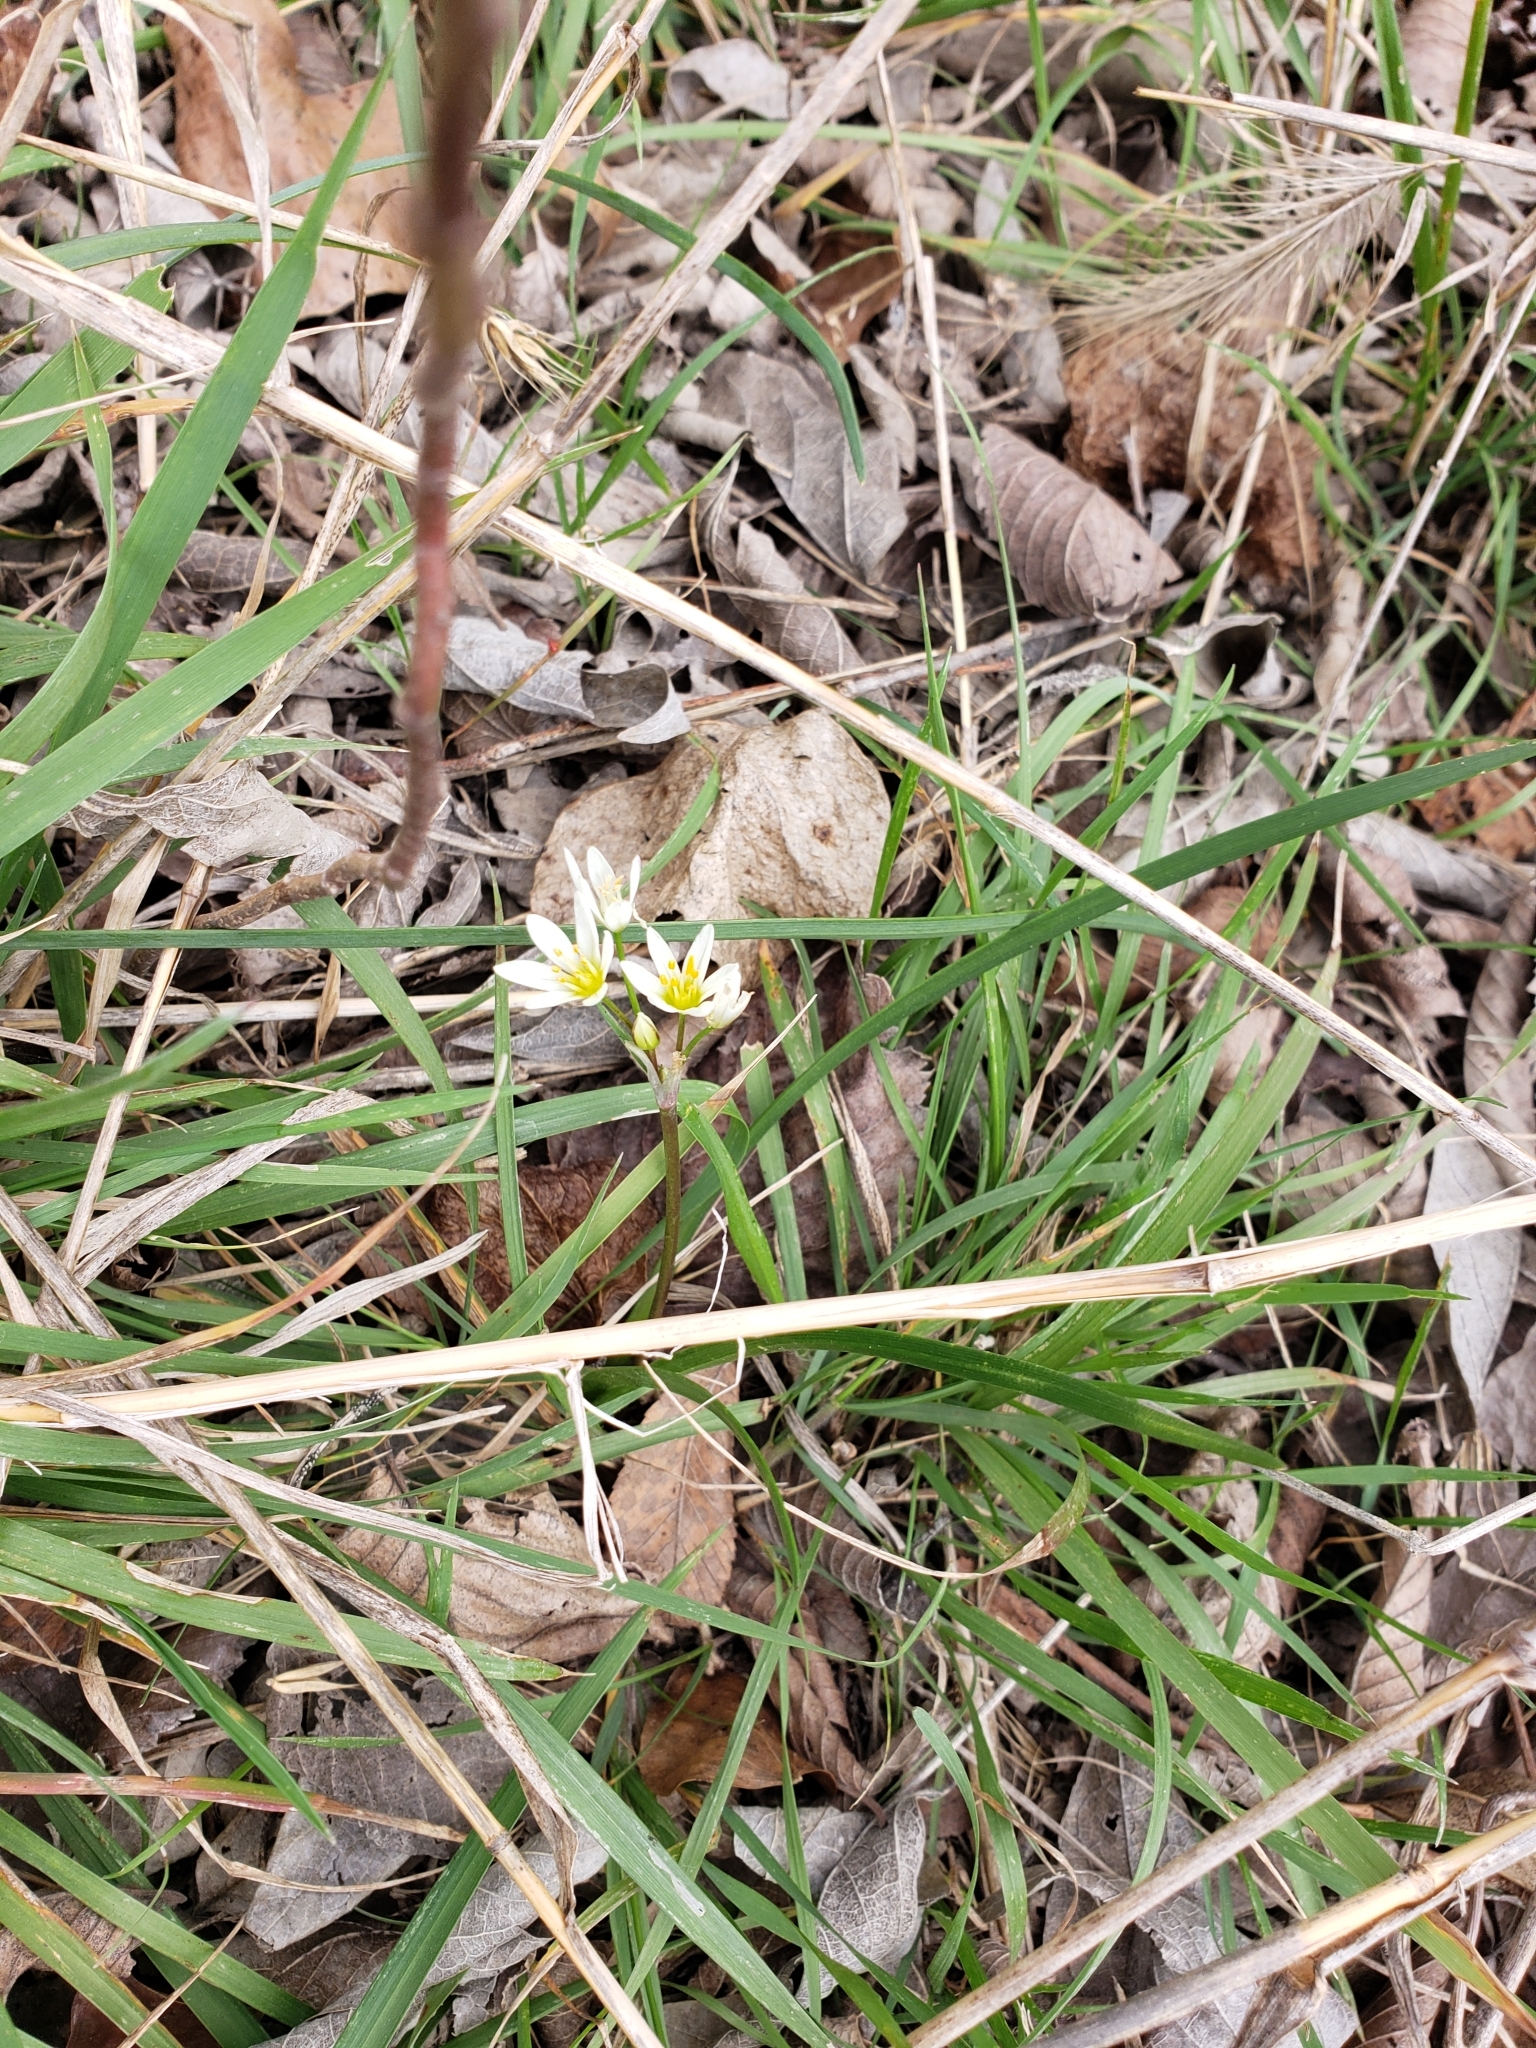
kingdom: Plantae
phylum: Tracheophyta
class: Liliopsida
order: Asparagales
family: Amaryllidaceae
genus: Nothoscordum
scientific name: Nothoscordum bivalve
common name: Crow-poison
